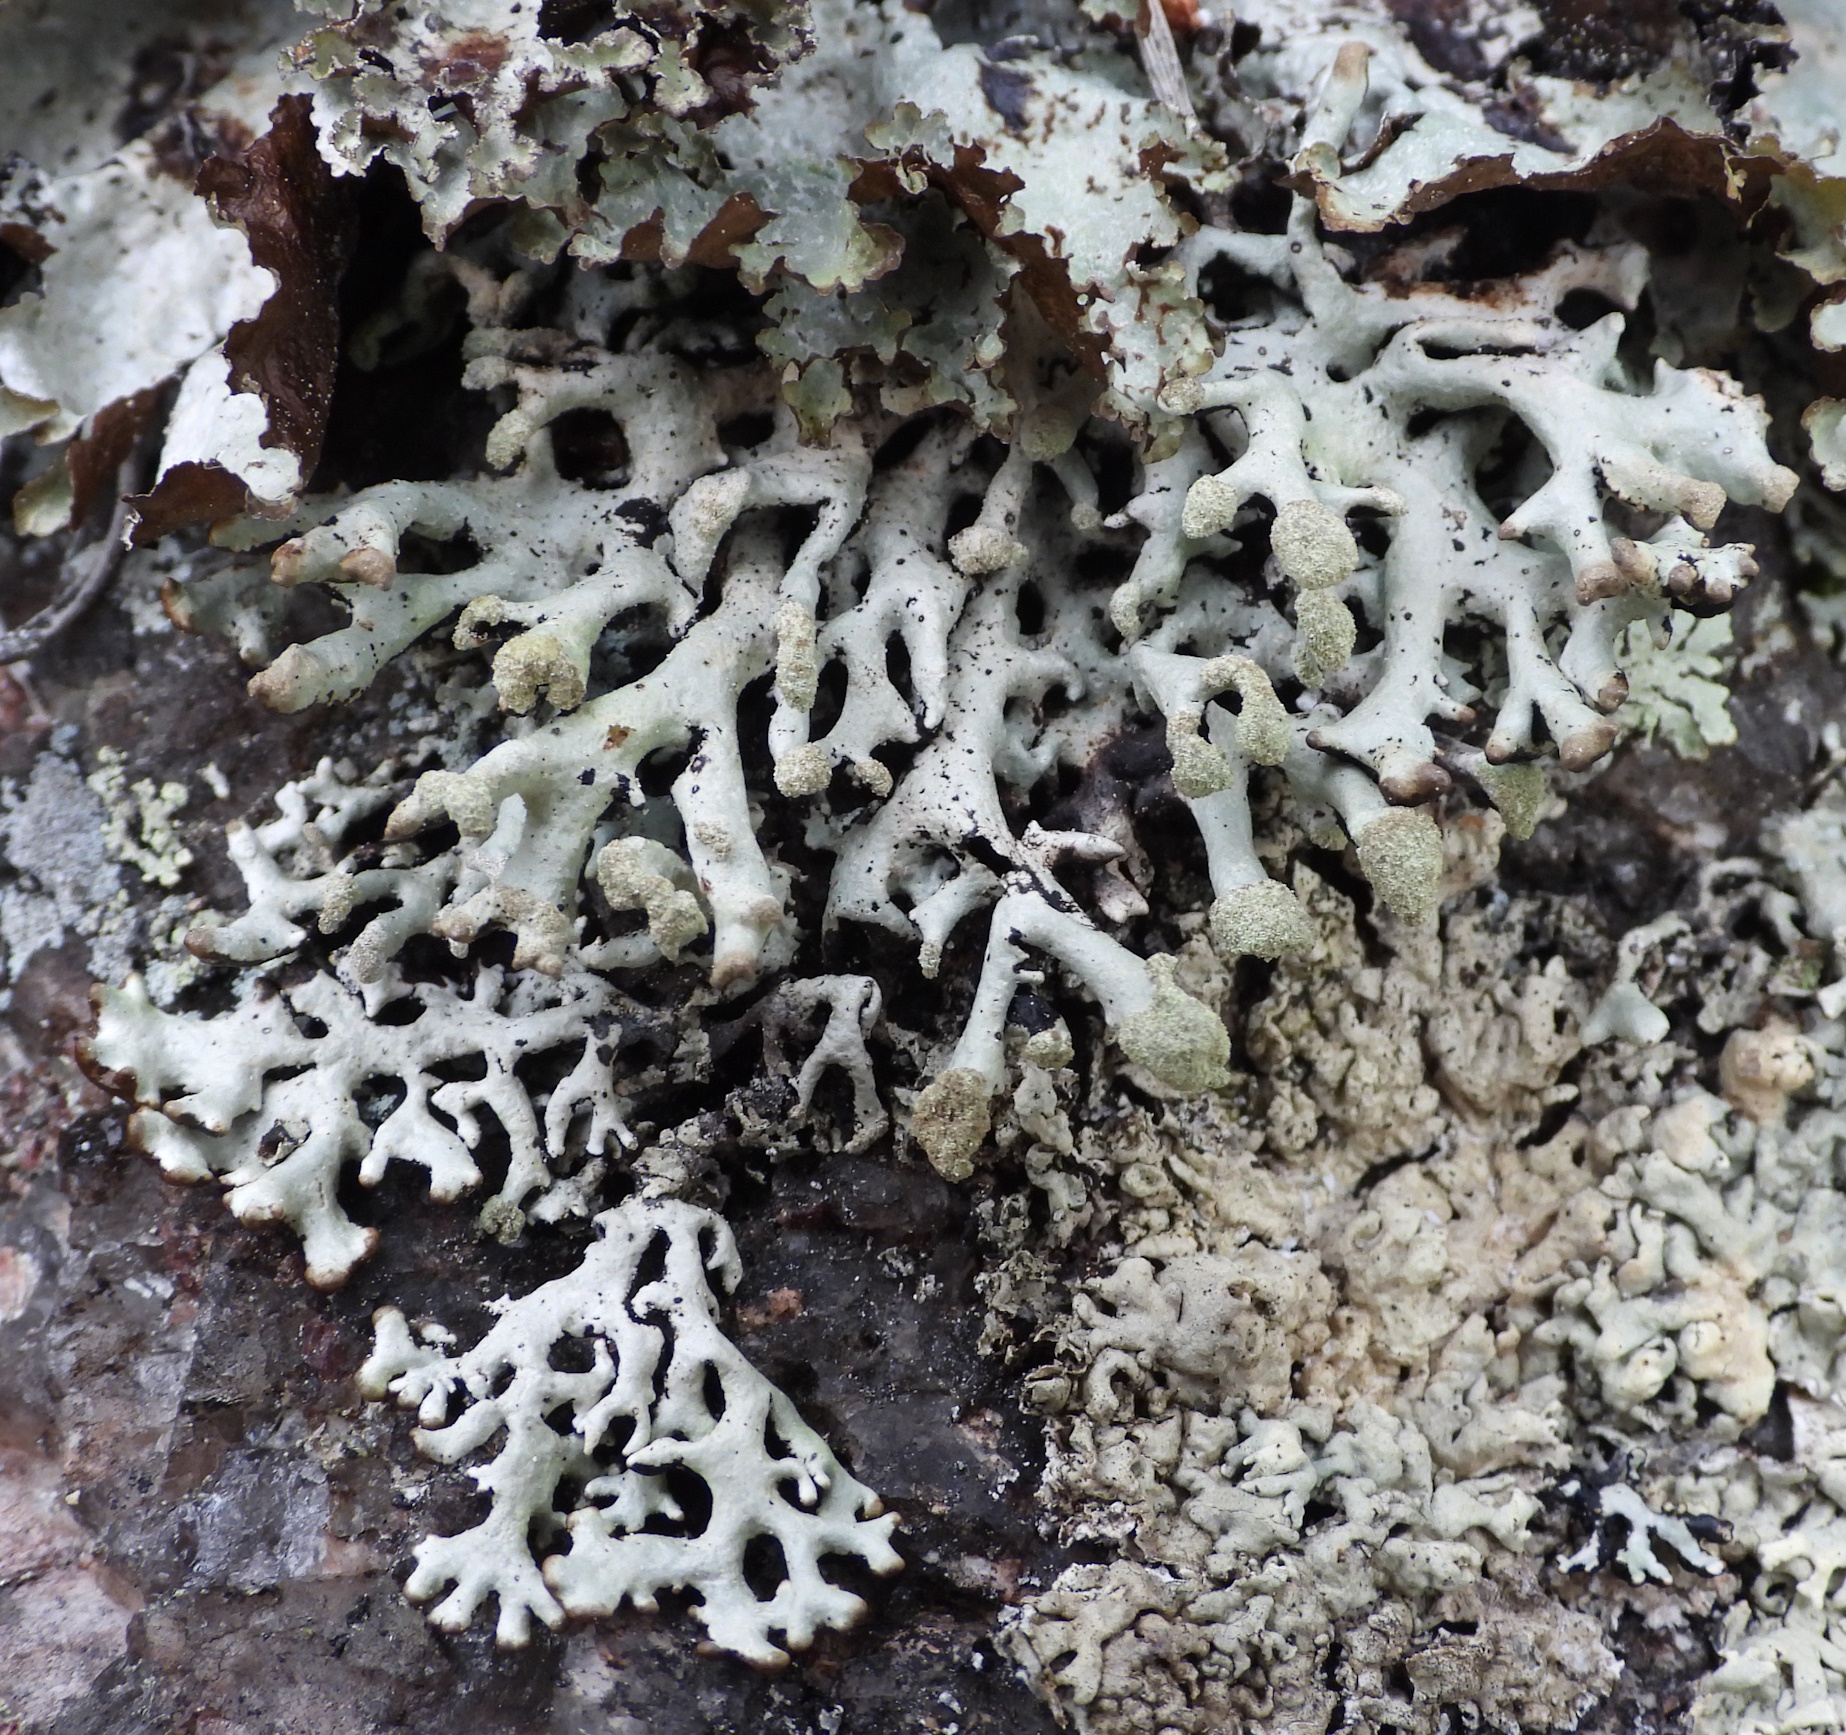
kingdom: Fungi
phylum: Ascomycota
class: Lecanoromycetes
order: Lecanorales
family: Parmeliaceae
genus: Hypogymnia
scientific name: Hypogymnia tubulosa
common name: Powder-headed tube lichen
